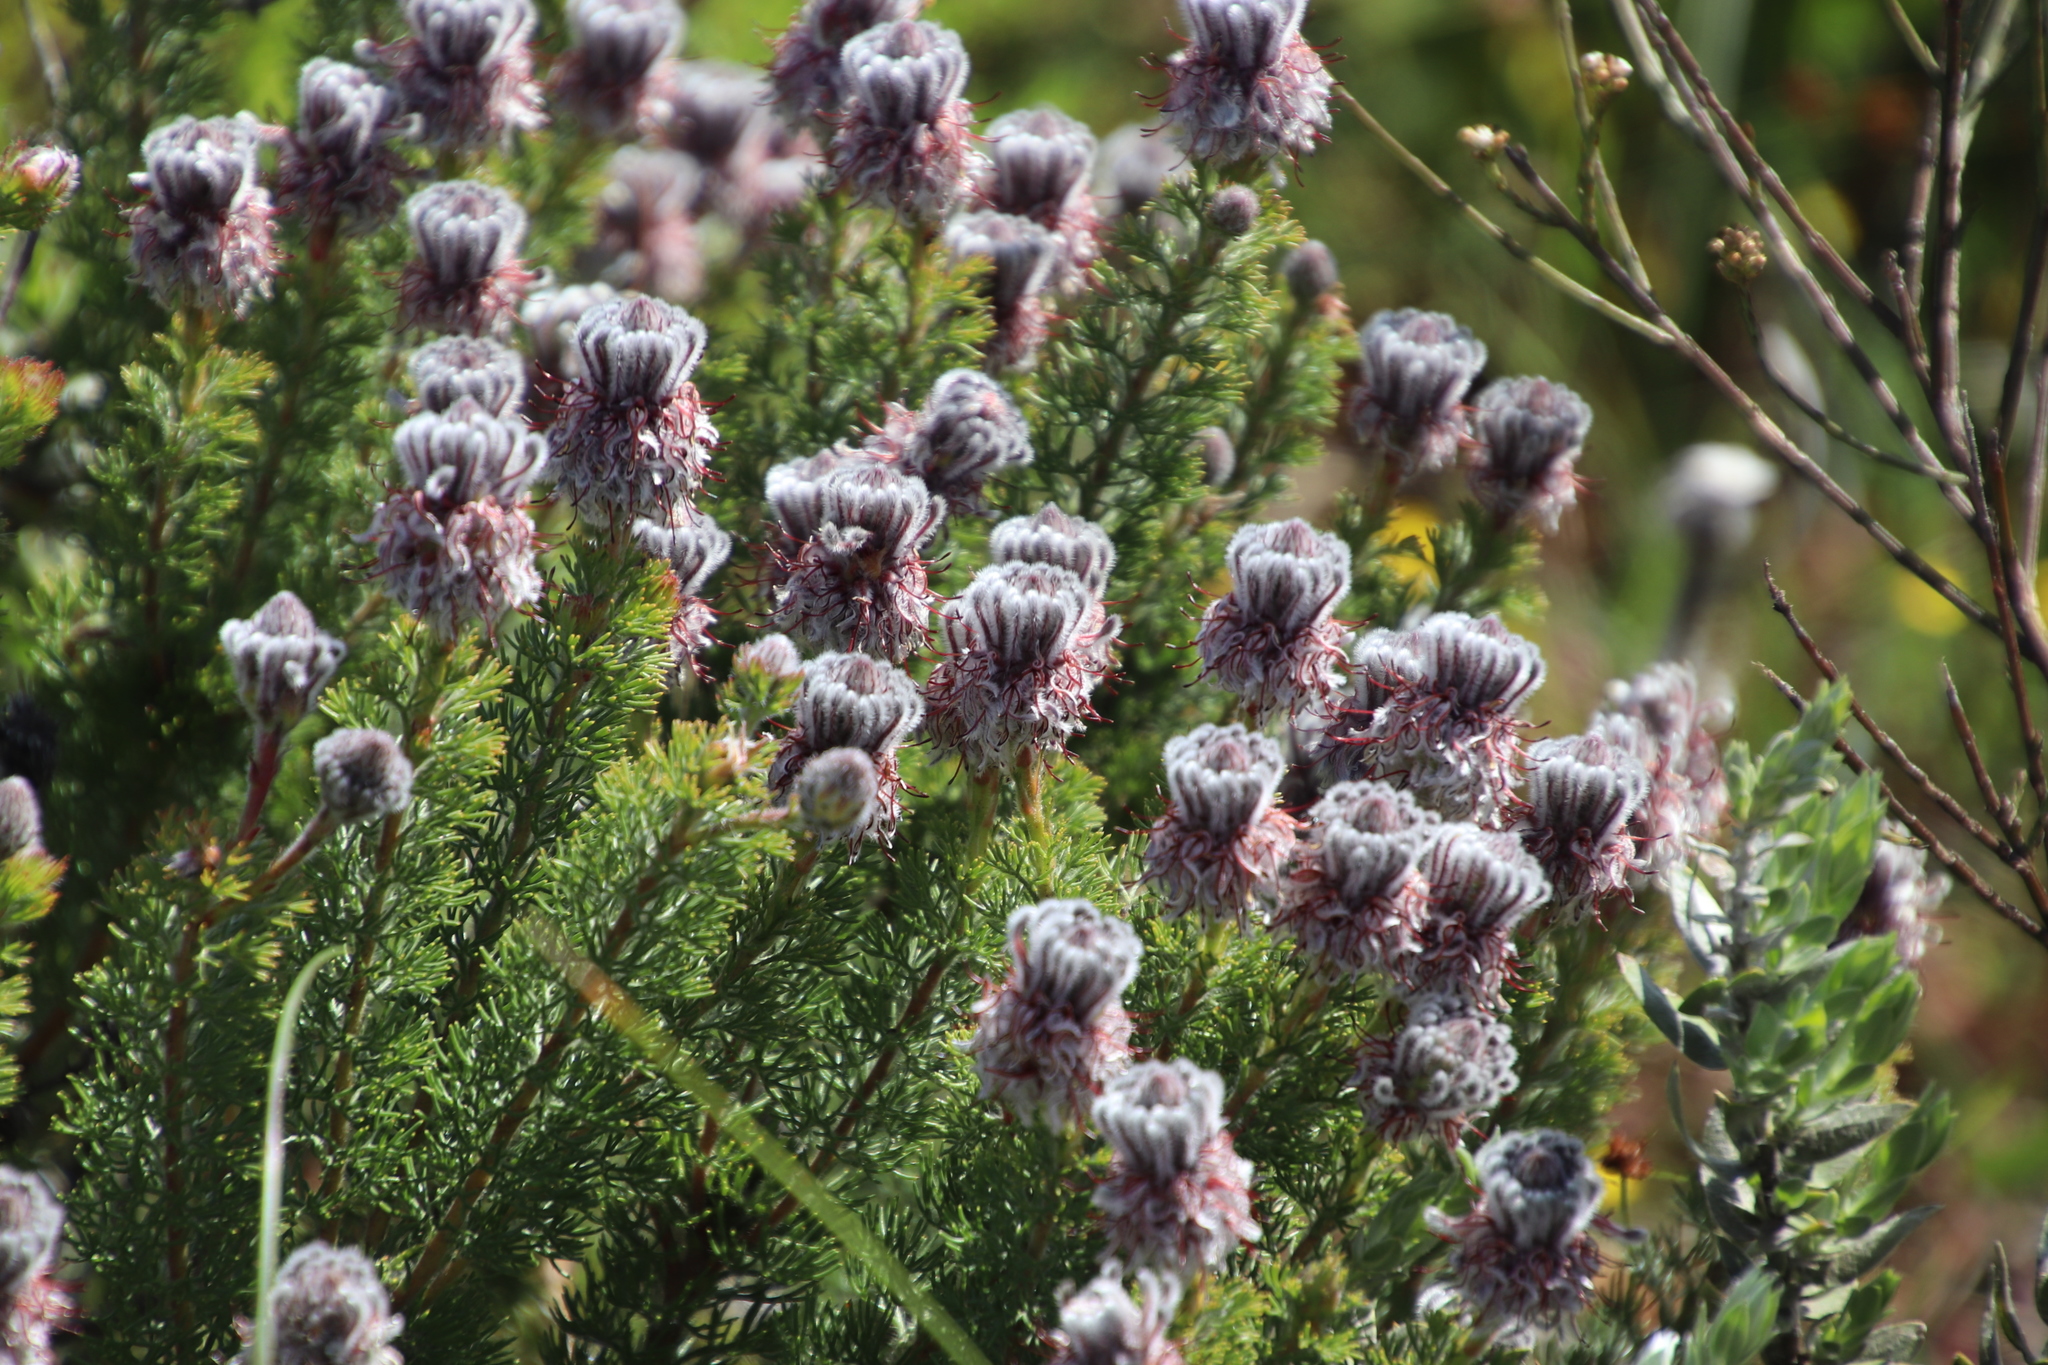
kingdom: Plantae
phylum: Tracheophyta
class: Magnoliopsida
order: Proteales
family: Proteaceae
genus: Serruria
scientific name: Serruria brownii
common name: Bottlebrush spiderhead
